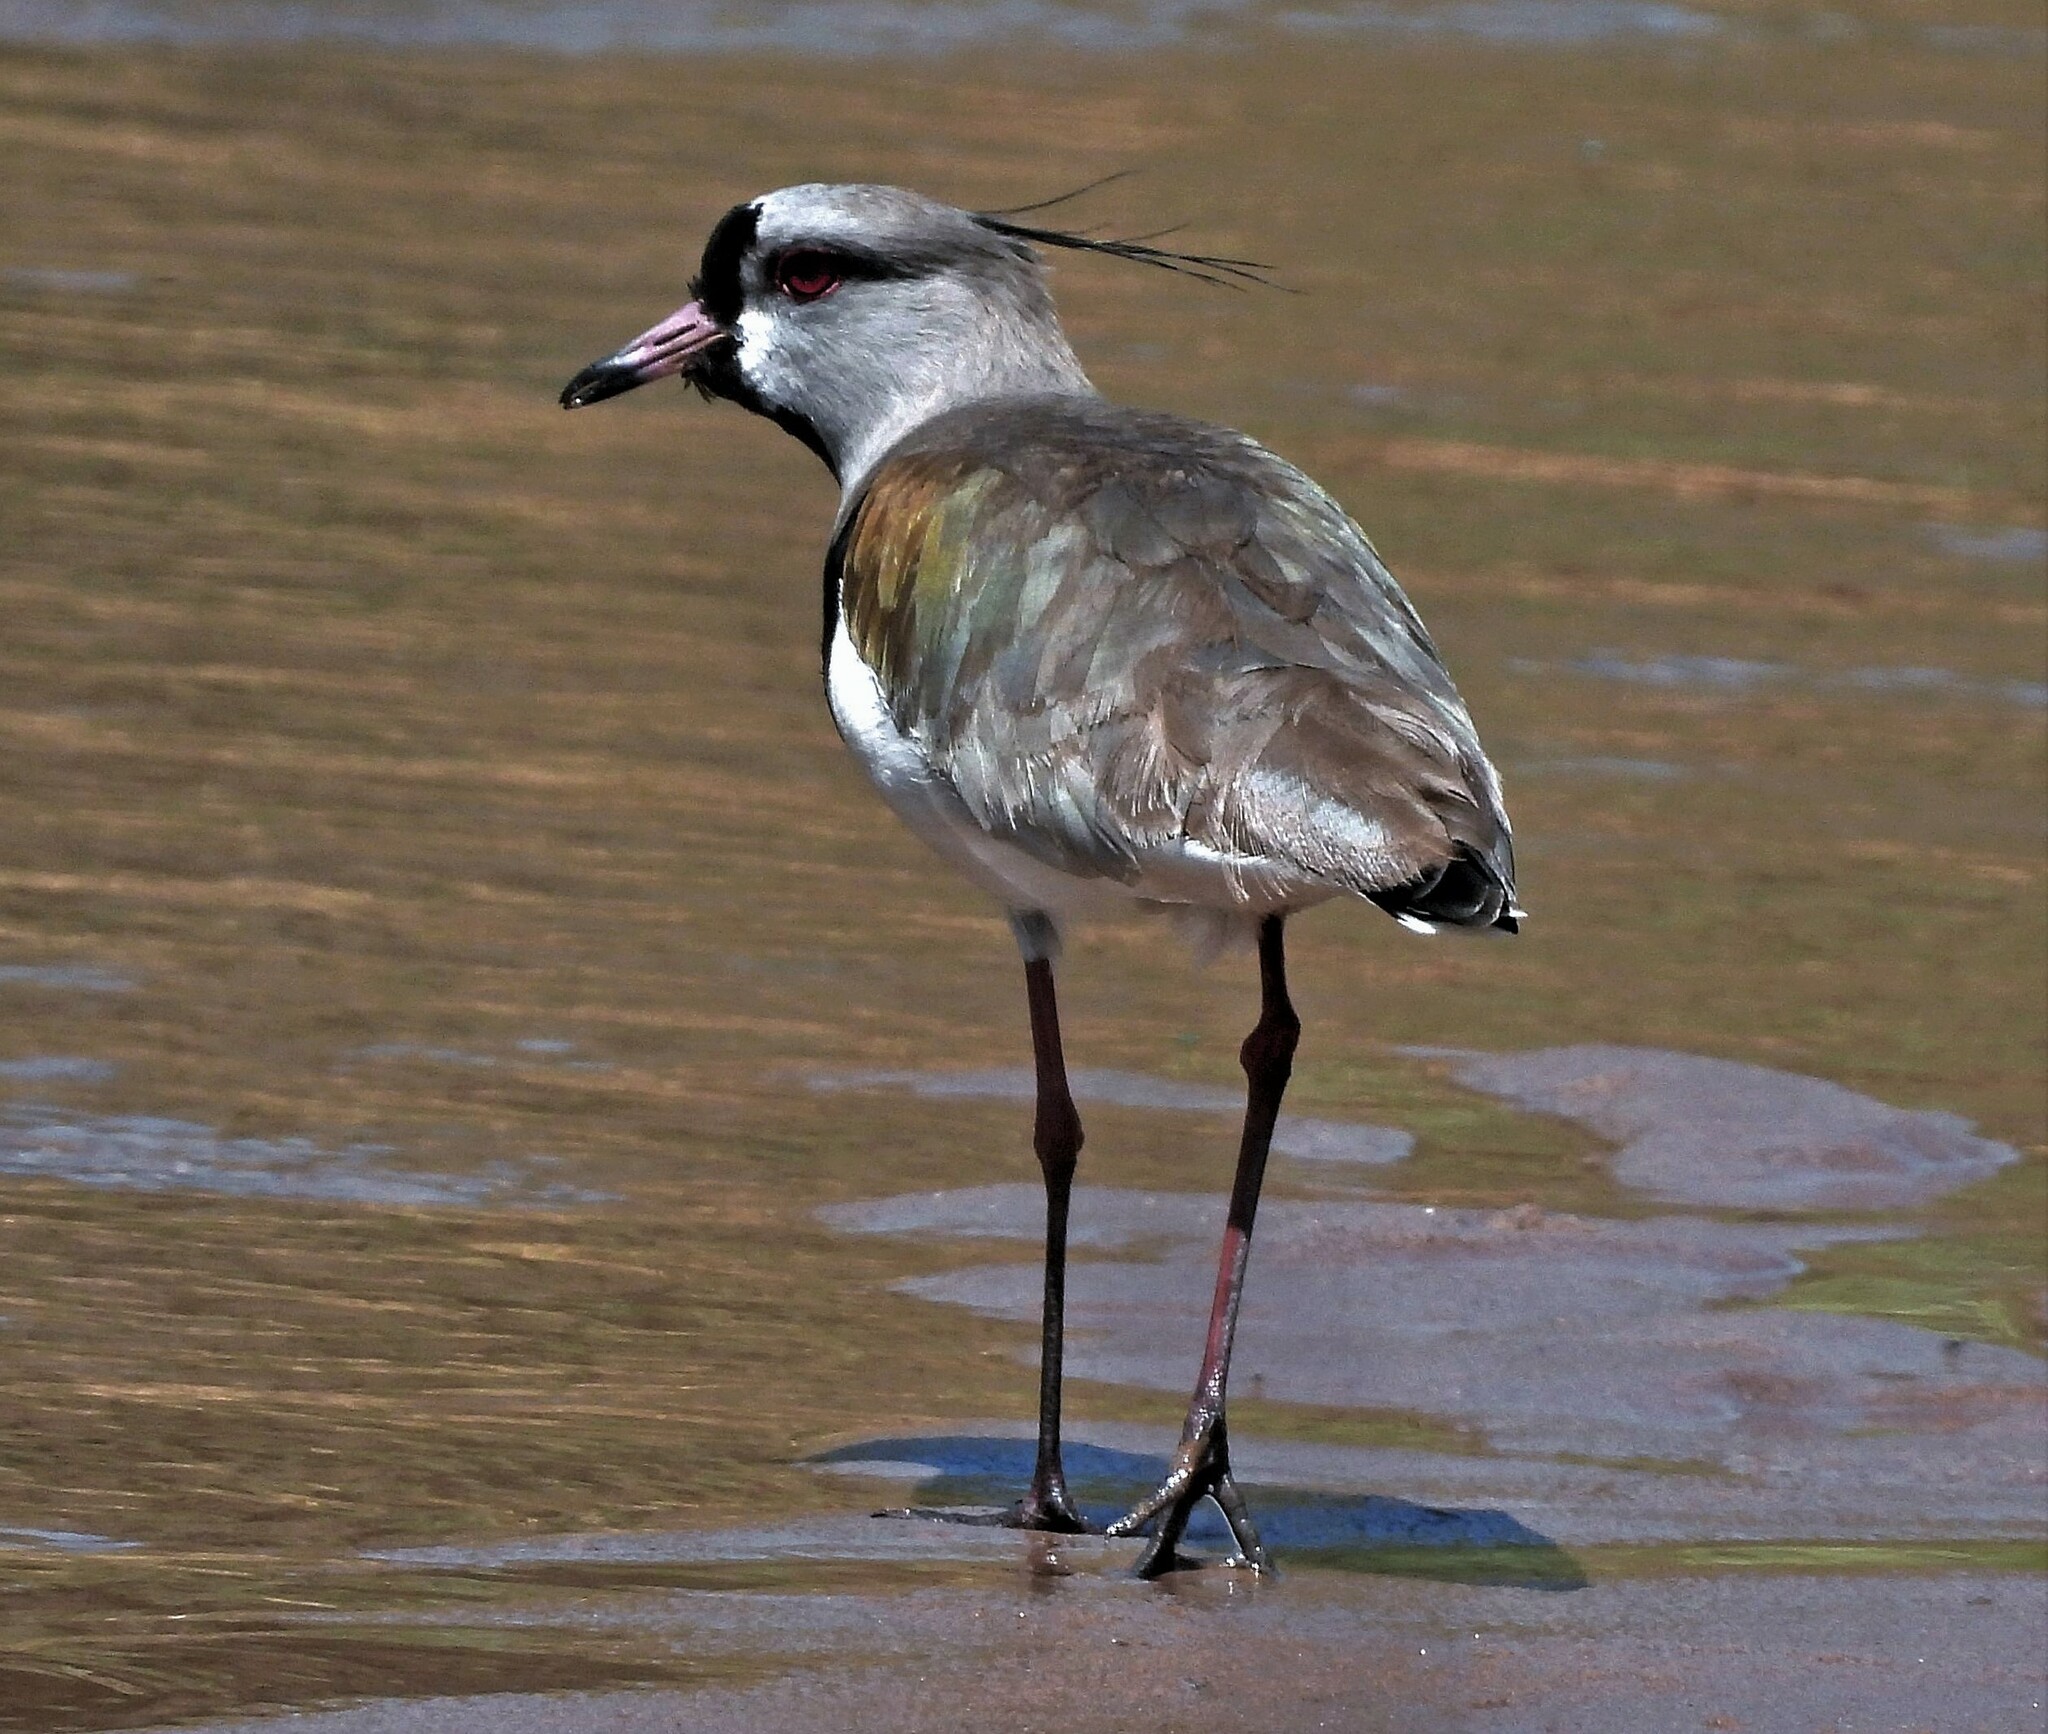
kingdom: Animalia
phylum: Chordata
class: Aves
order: Charadriiformes
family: Charadriidae
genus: Vanellus
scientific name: Vanellus chilensis
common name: Southern lapwing
